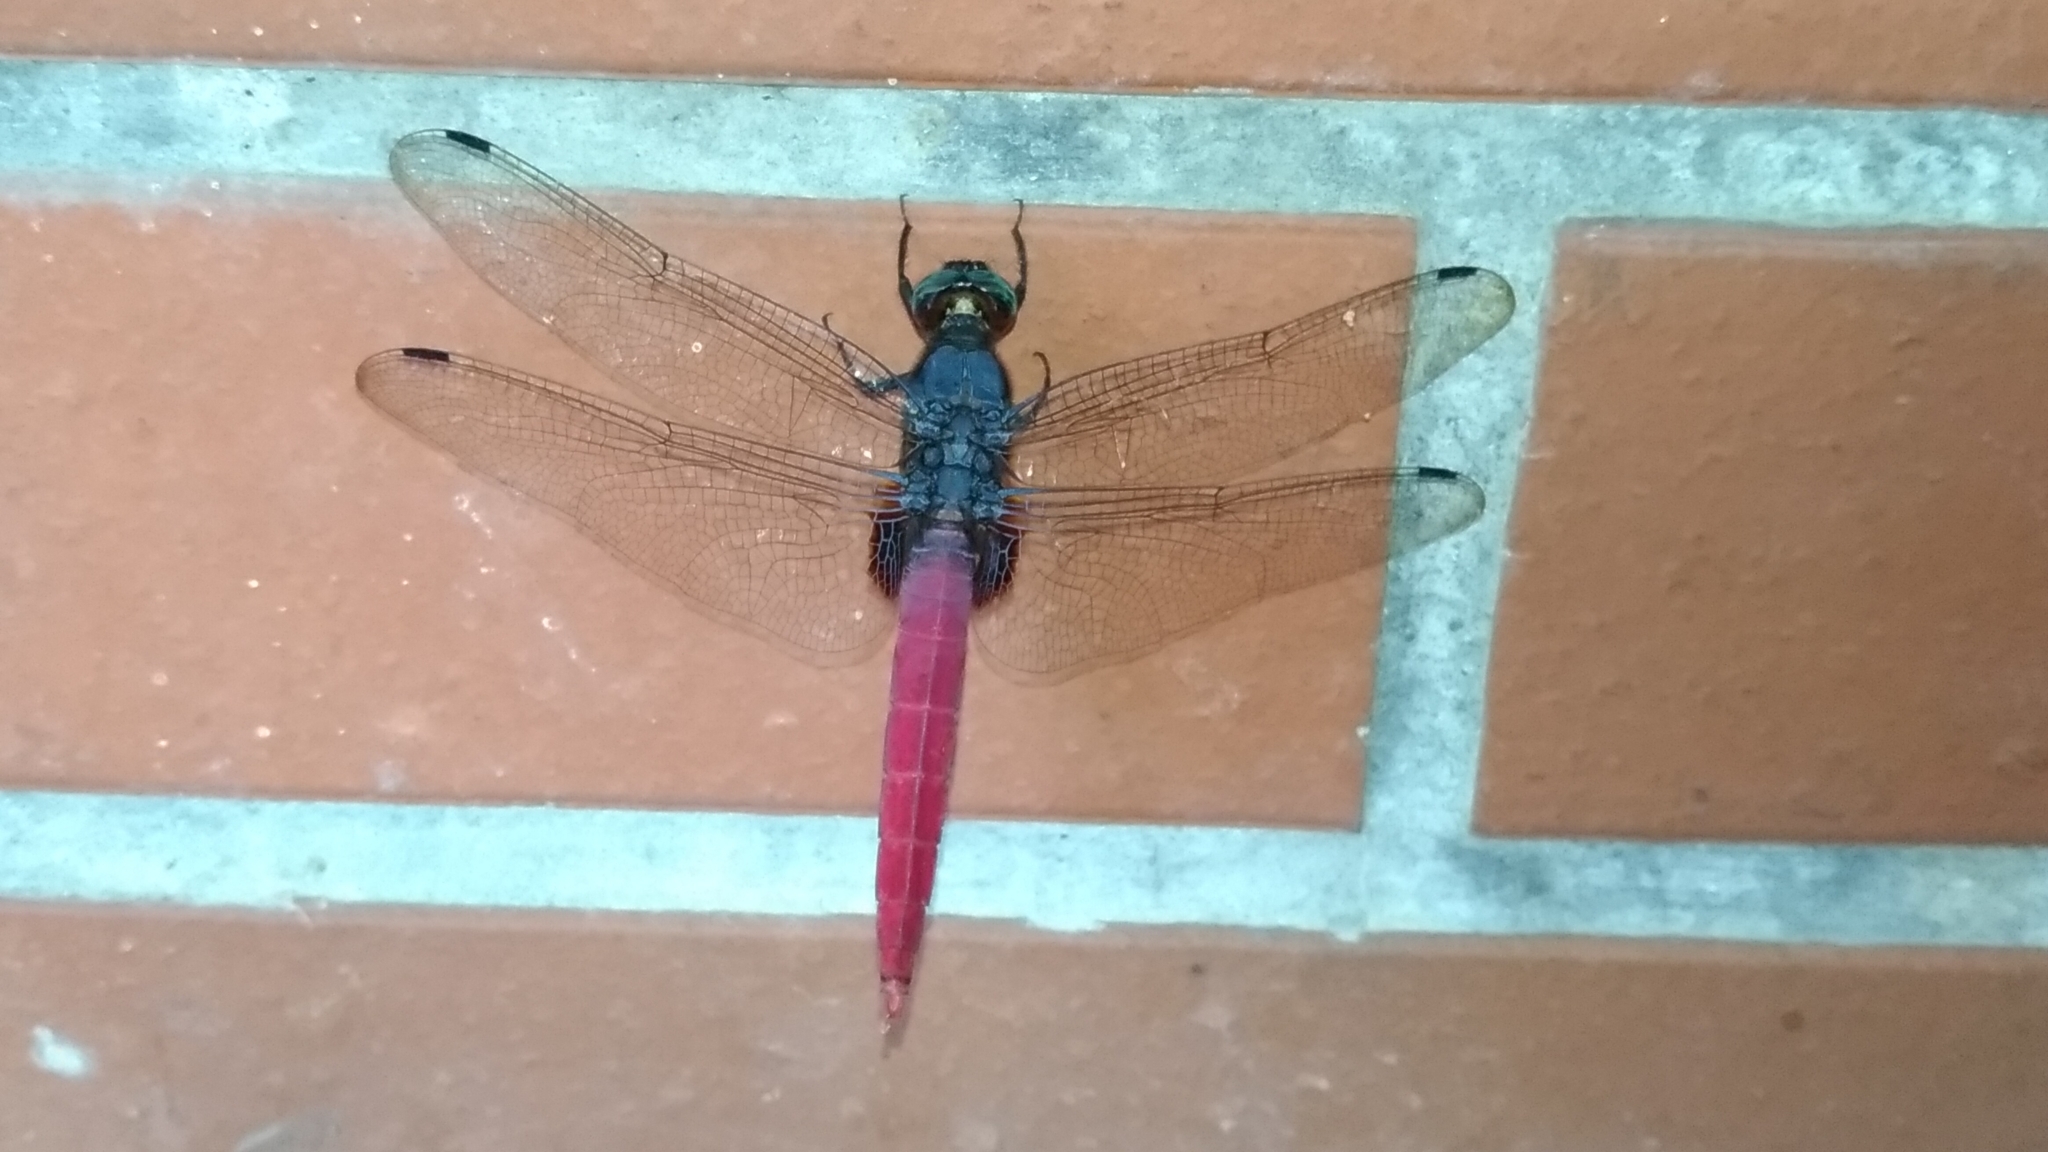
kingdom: Animalia
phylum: Arthropoda
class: Insecta
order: Odonata
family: Libellulidae
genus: Orthetrum
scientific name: Orthetrum pruinosum
